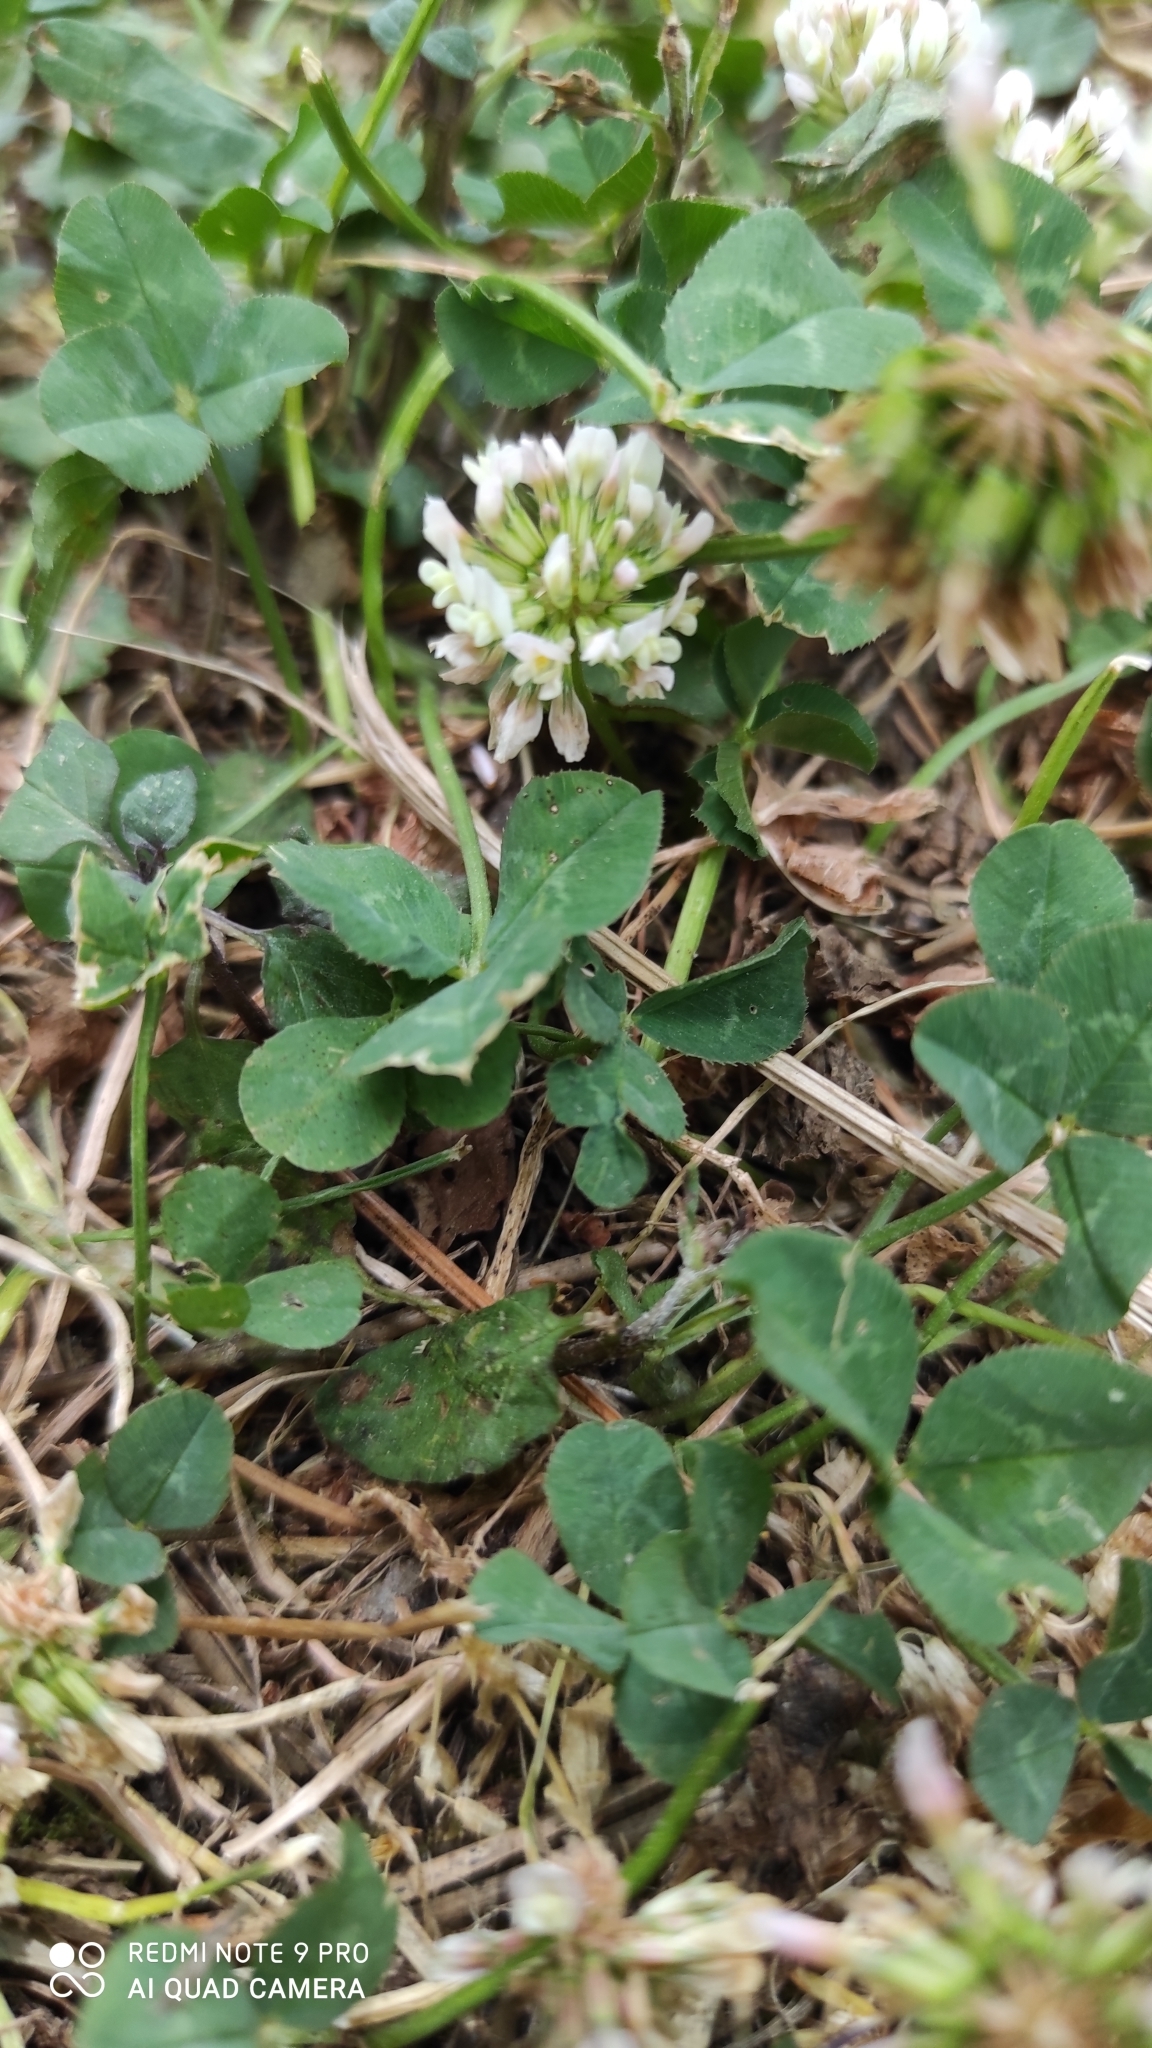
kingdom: Plantae
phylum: Tracheophyta
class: Magnoliopsida
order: Fabales
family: Fabaceae
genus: Trifolium
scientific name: Trifolium repens
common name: White clover
